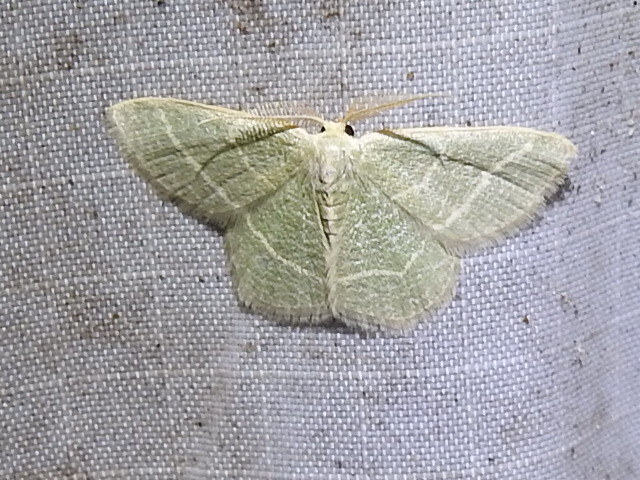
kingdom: Animalia
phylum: Arthropoda
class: Insecta
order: Lepidoptera
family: Geometridae
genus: Chlorochlamys
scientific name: Chlorochlamys chloroleucaria
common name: Blackberry looper
